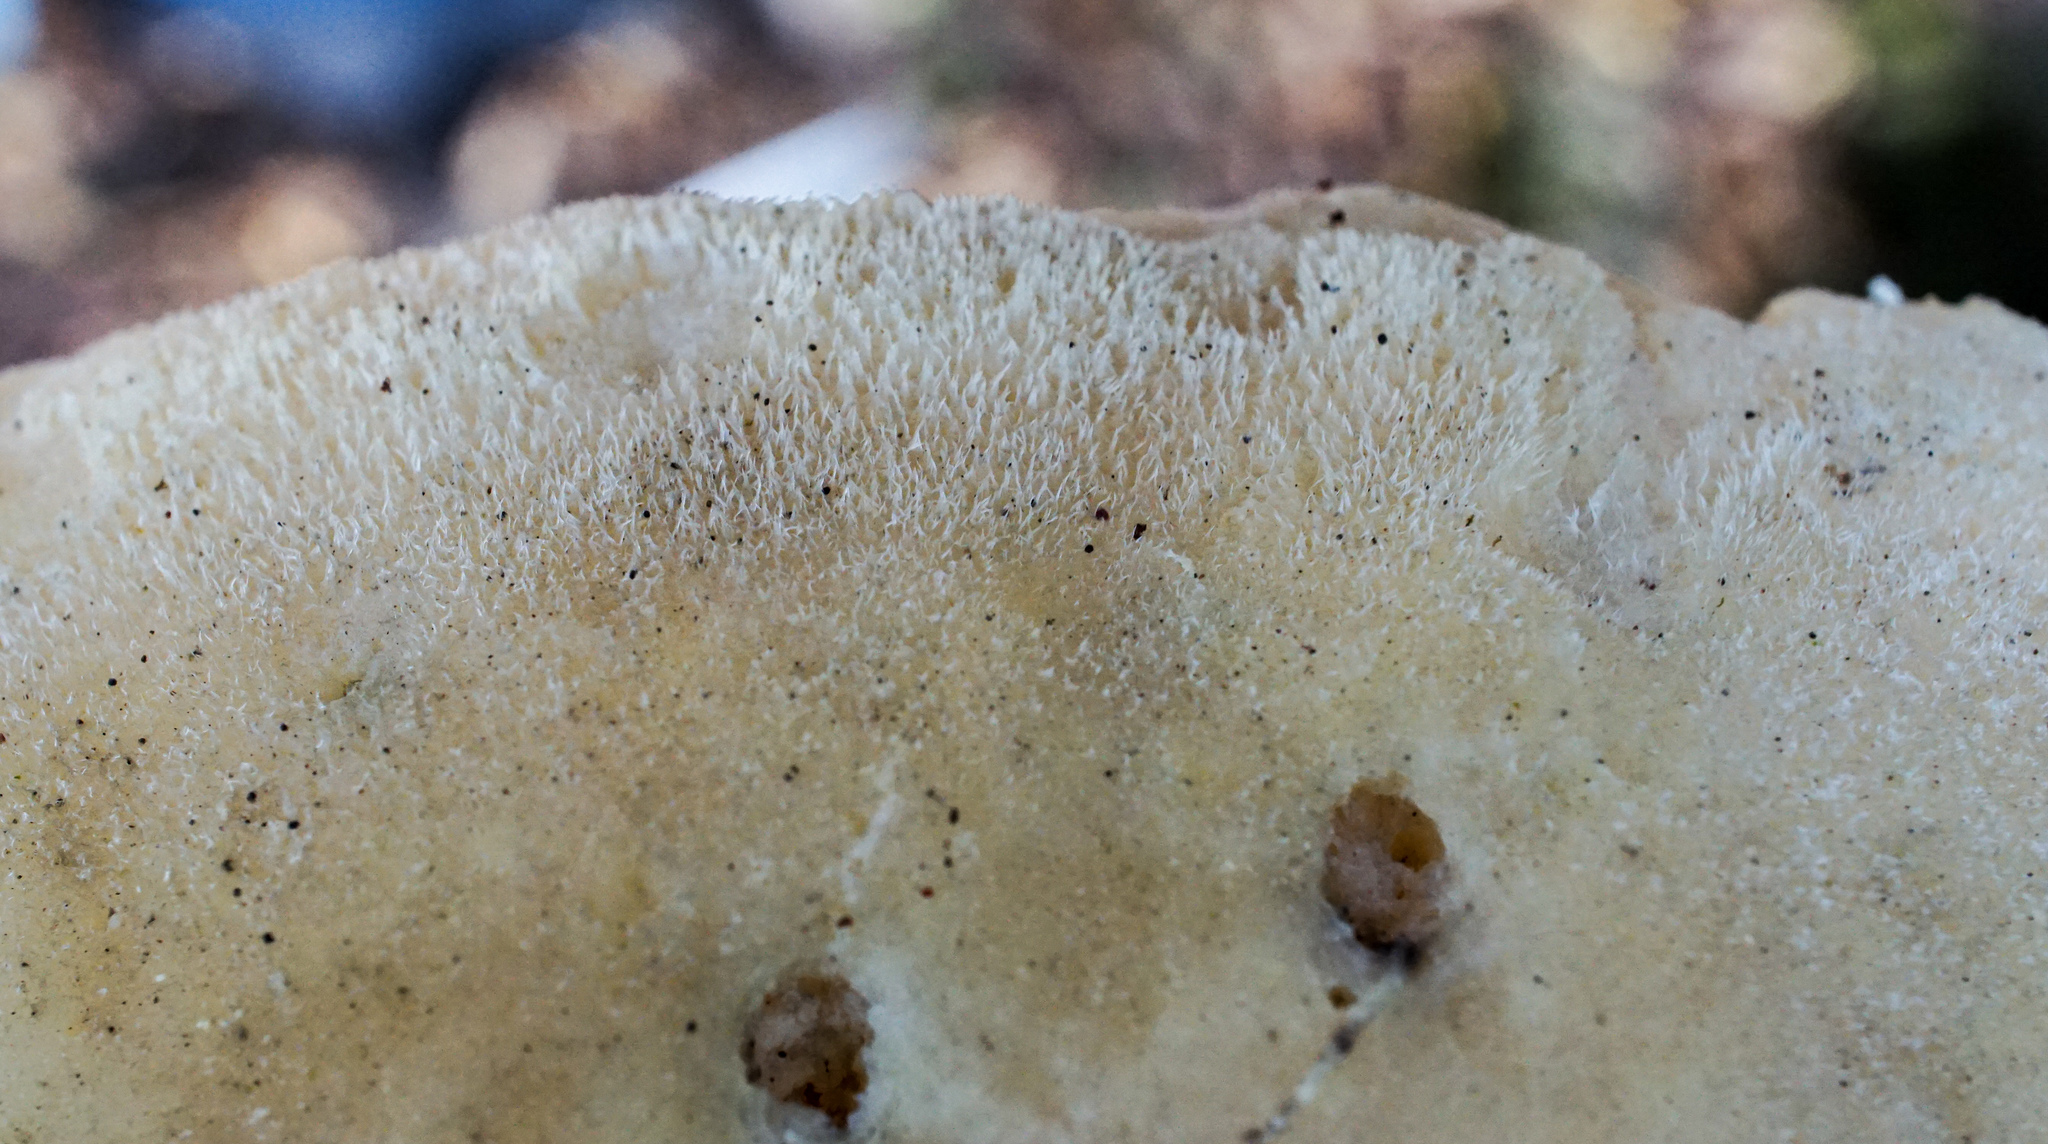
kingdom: Fungi
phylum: Basidiomycota
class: Agaricomycetes
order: Polyporales
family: Meruliaceae
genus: Spongipellis
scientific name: Spongipellis
